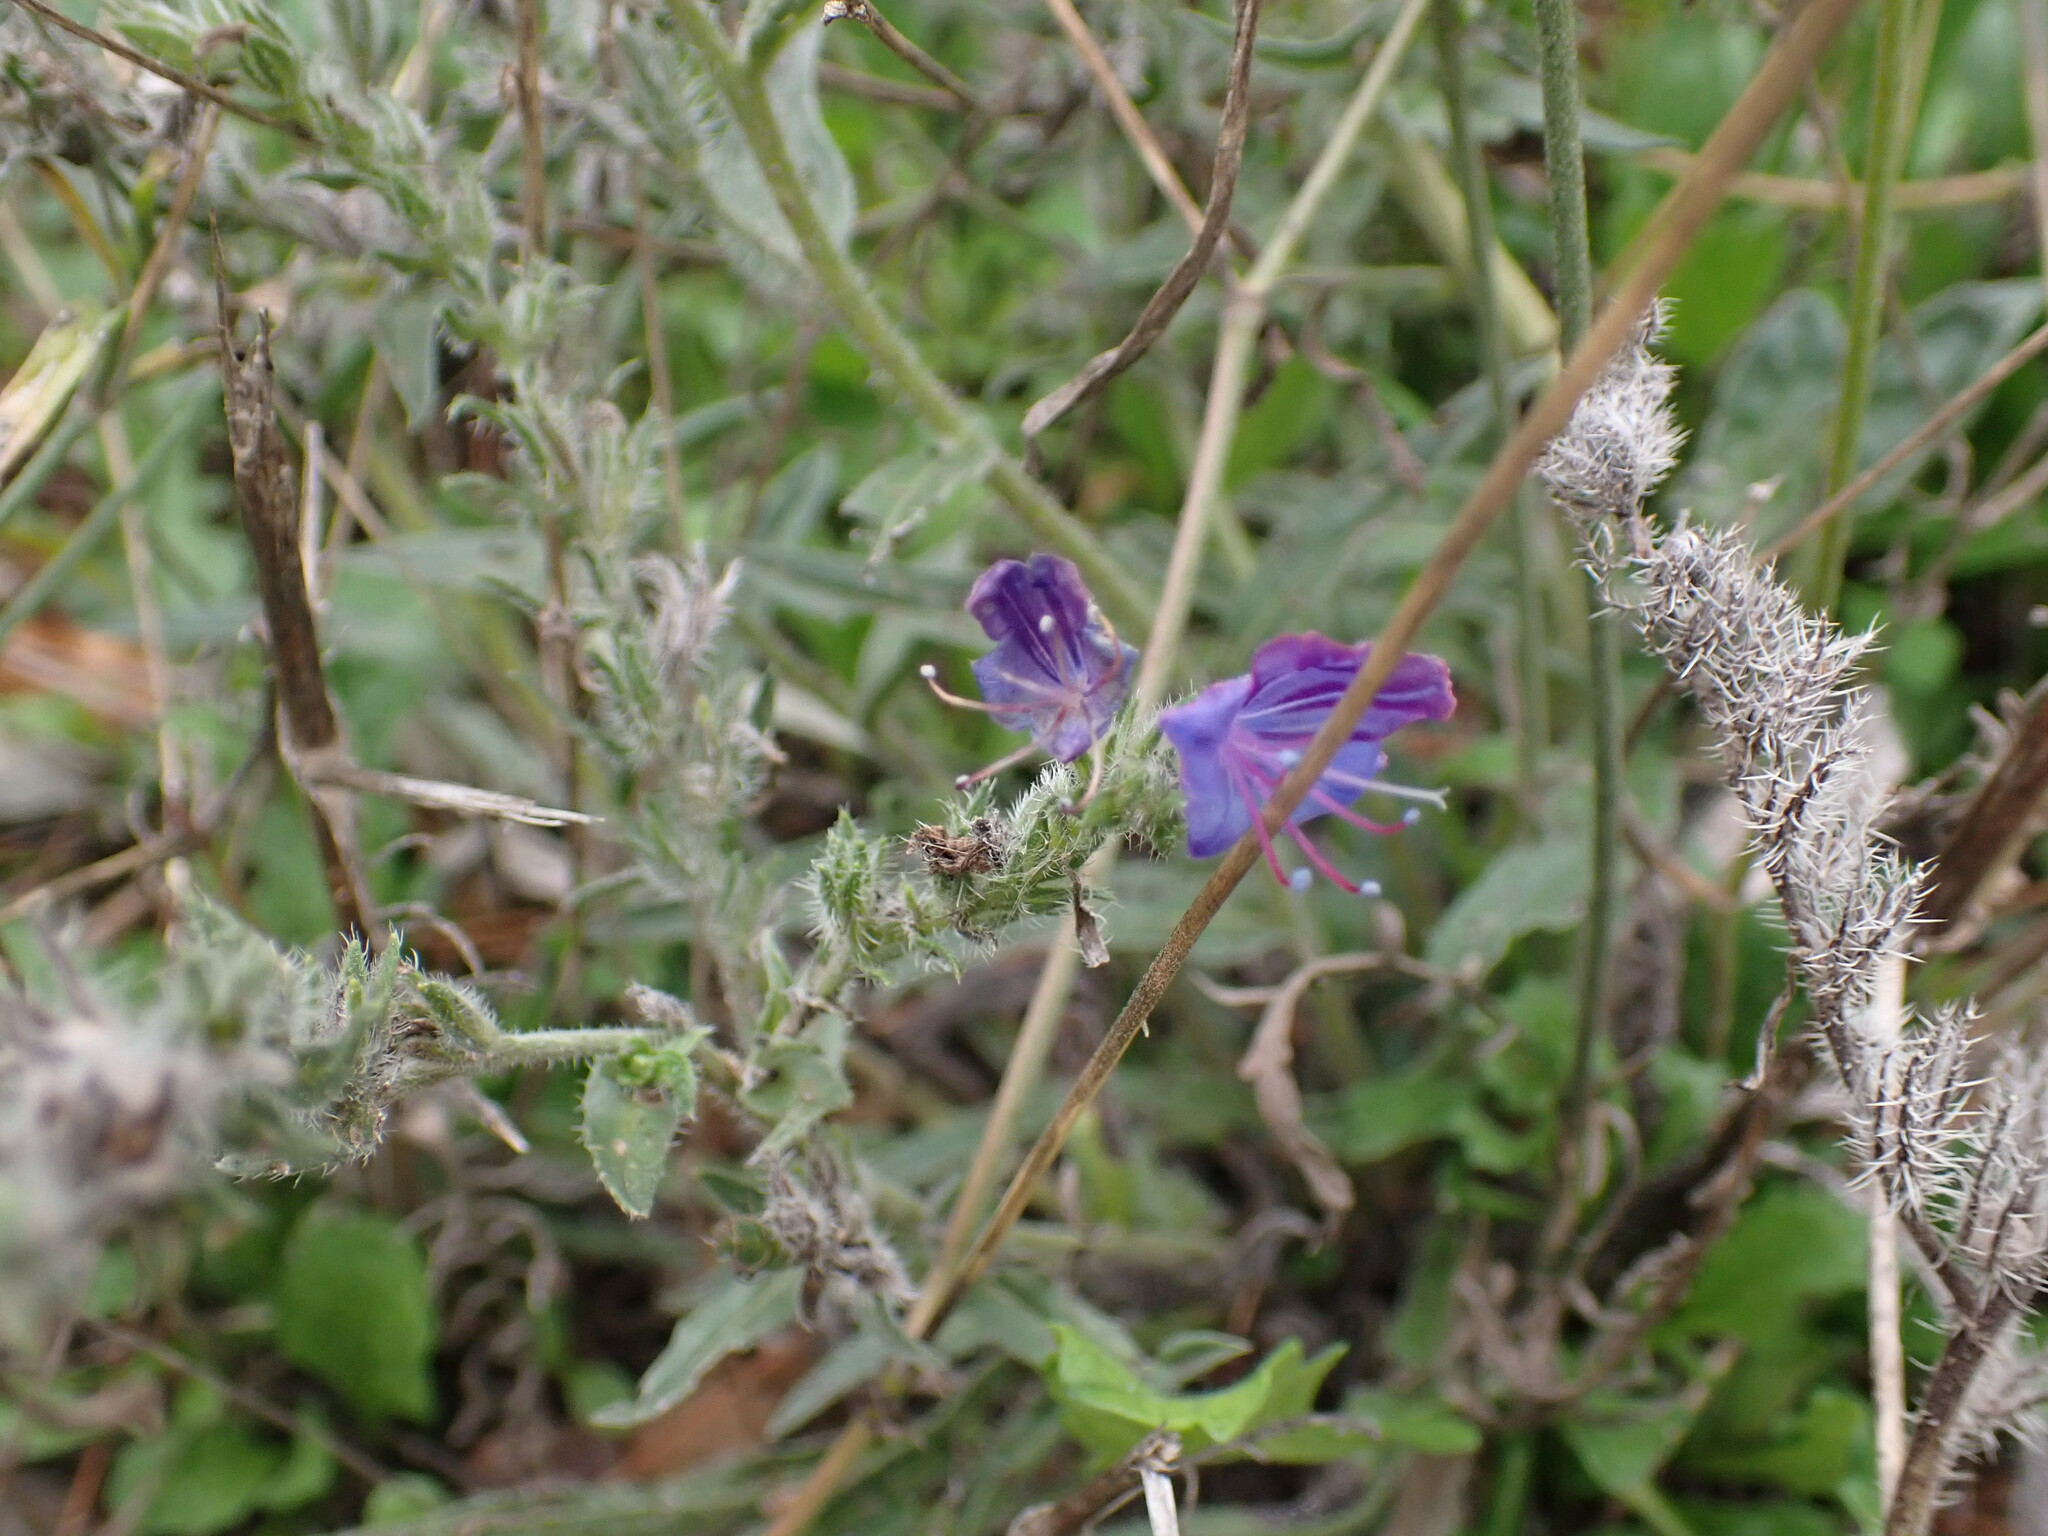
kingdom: Plantae
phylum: Tracheophyta
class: Magnoliopsida
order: Boraginales
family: Boraginaceae
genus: Echium
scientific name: Echium vulgare
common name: Common viper's bugloss
